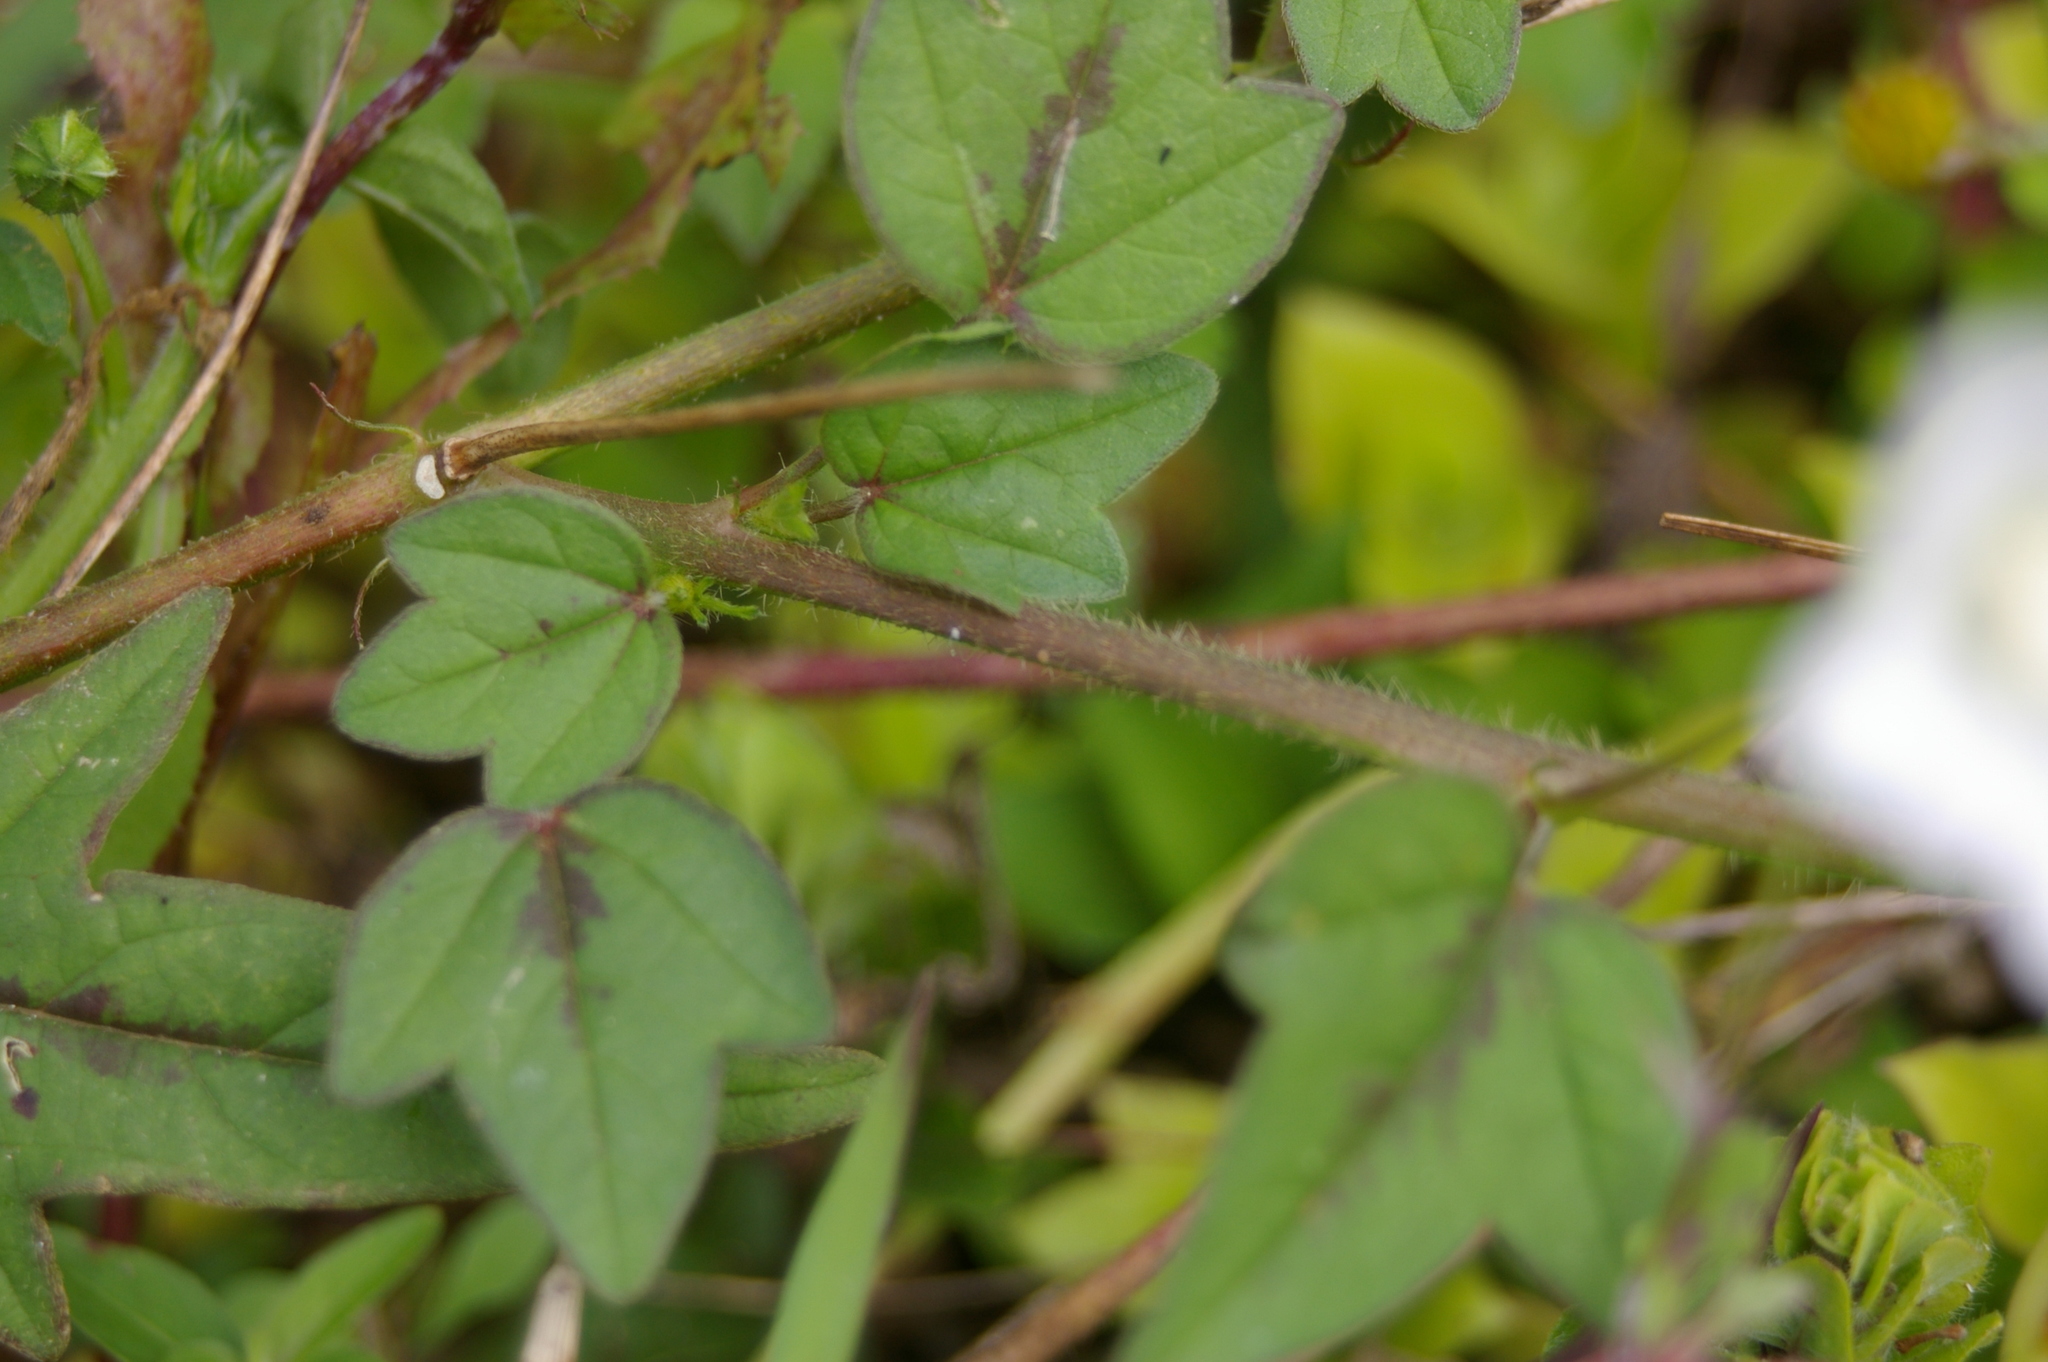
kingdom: Plantae
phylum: Tracheophyta
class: Magnoliopsida
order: Malvales
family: Malvaceae
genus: Anoda
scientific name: Anoda acerifolia
